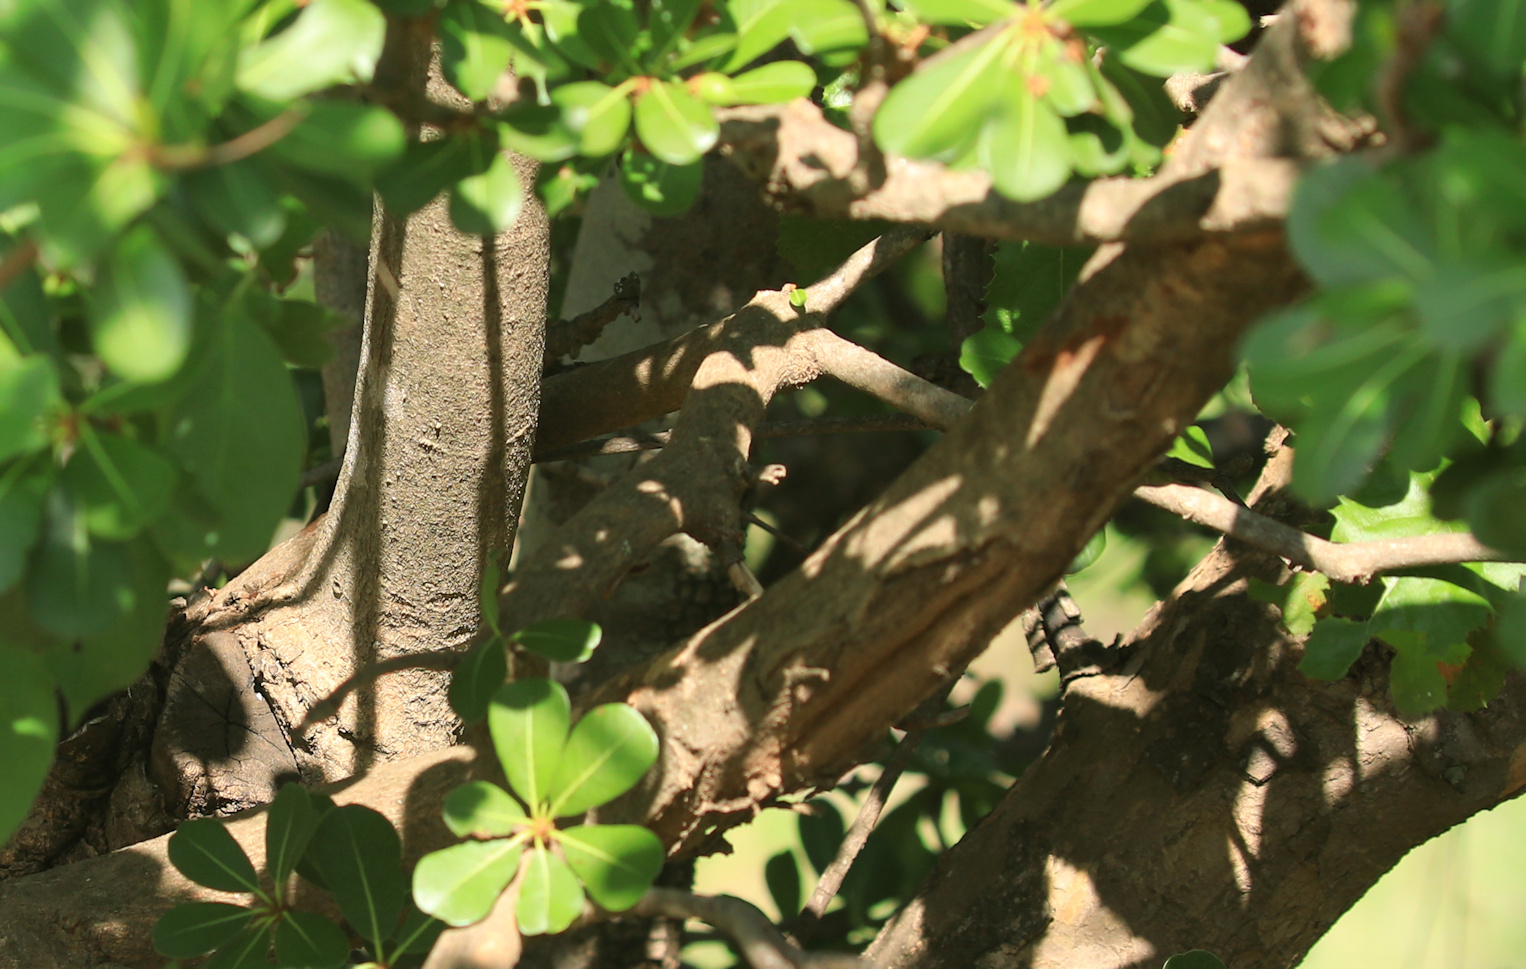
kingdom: Plantae
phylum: Tracheophyta
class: Magnoliopsida
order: Ericales
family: Sapotaceae
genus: Manilkara
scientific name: Manilkara mochisia
